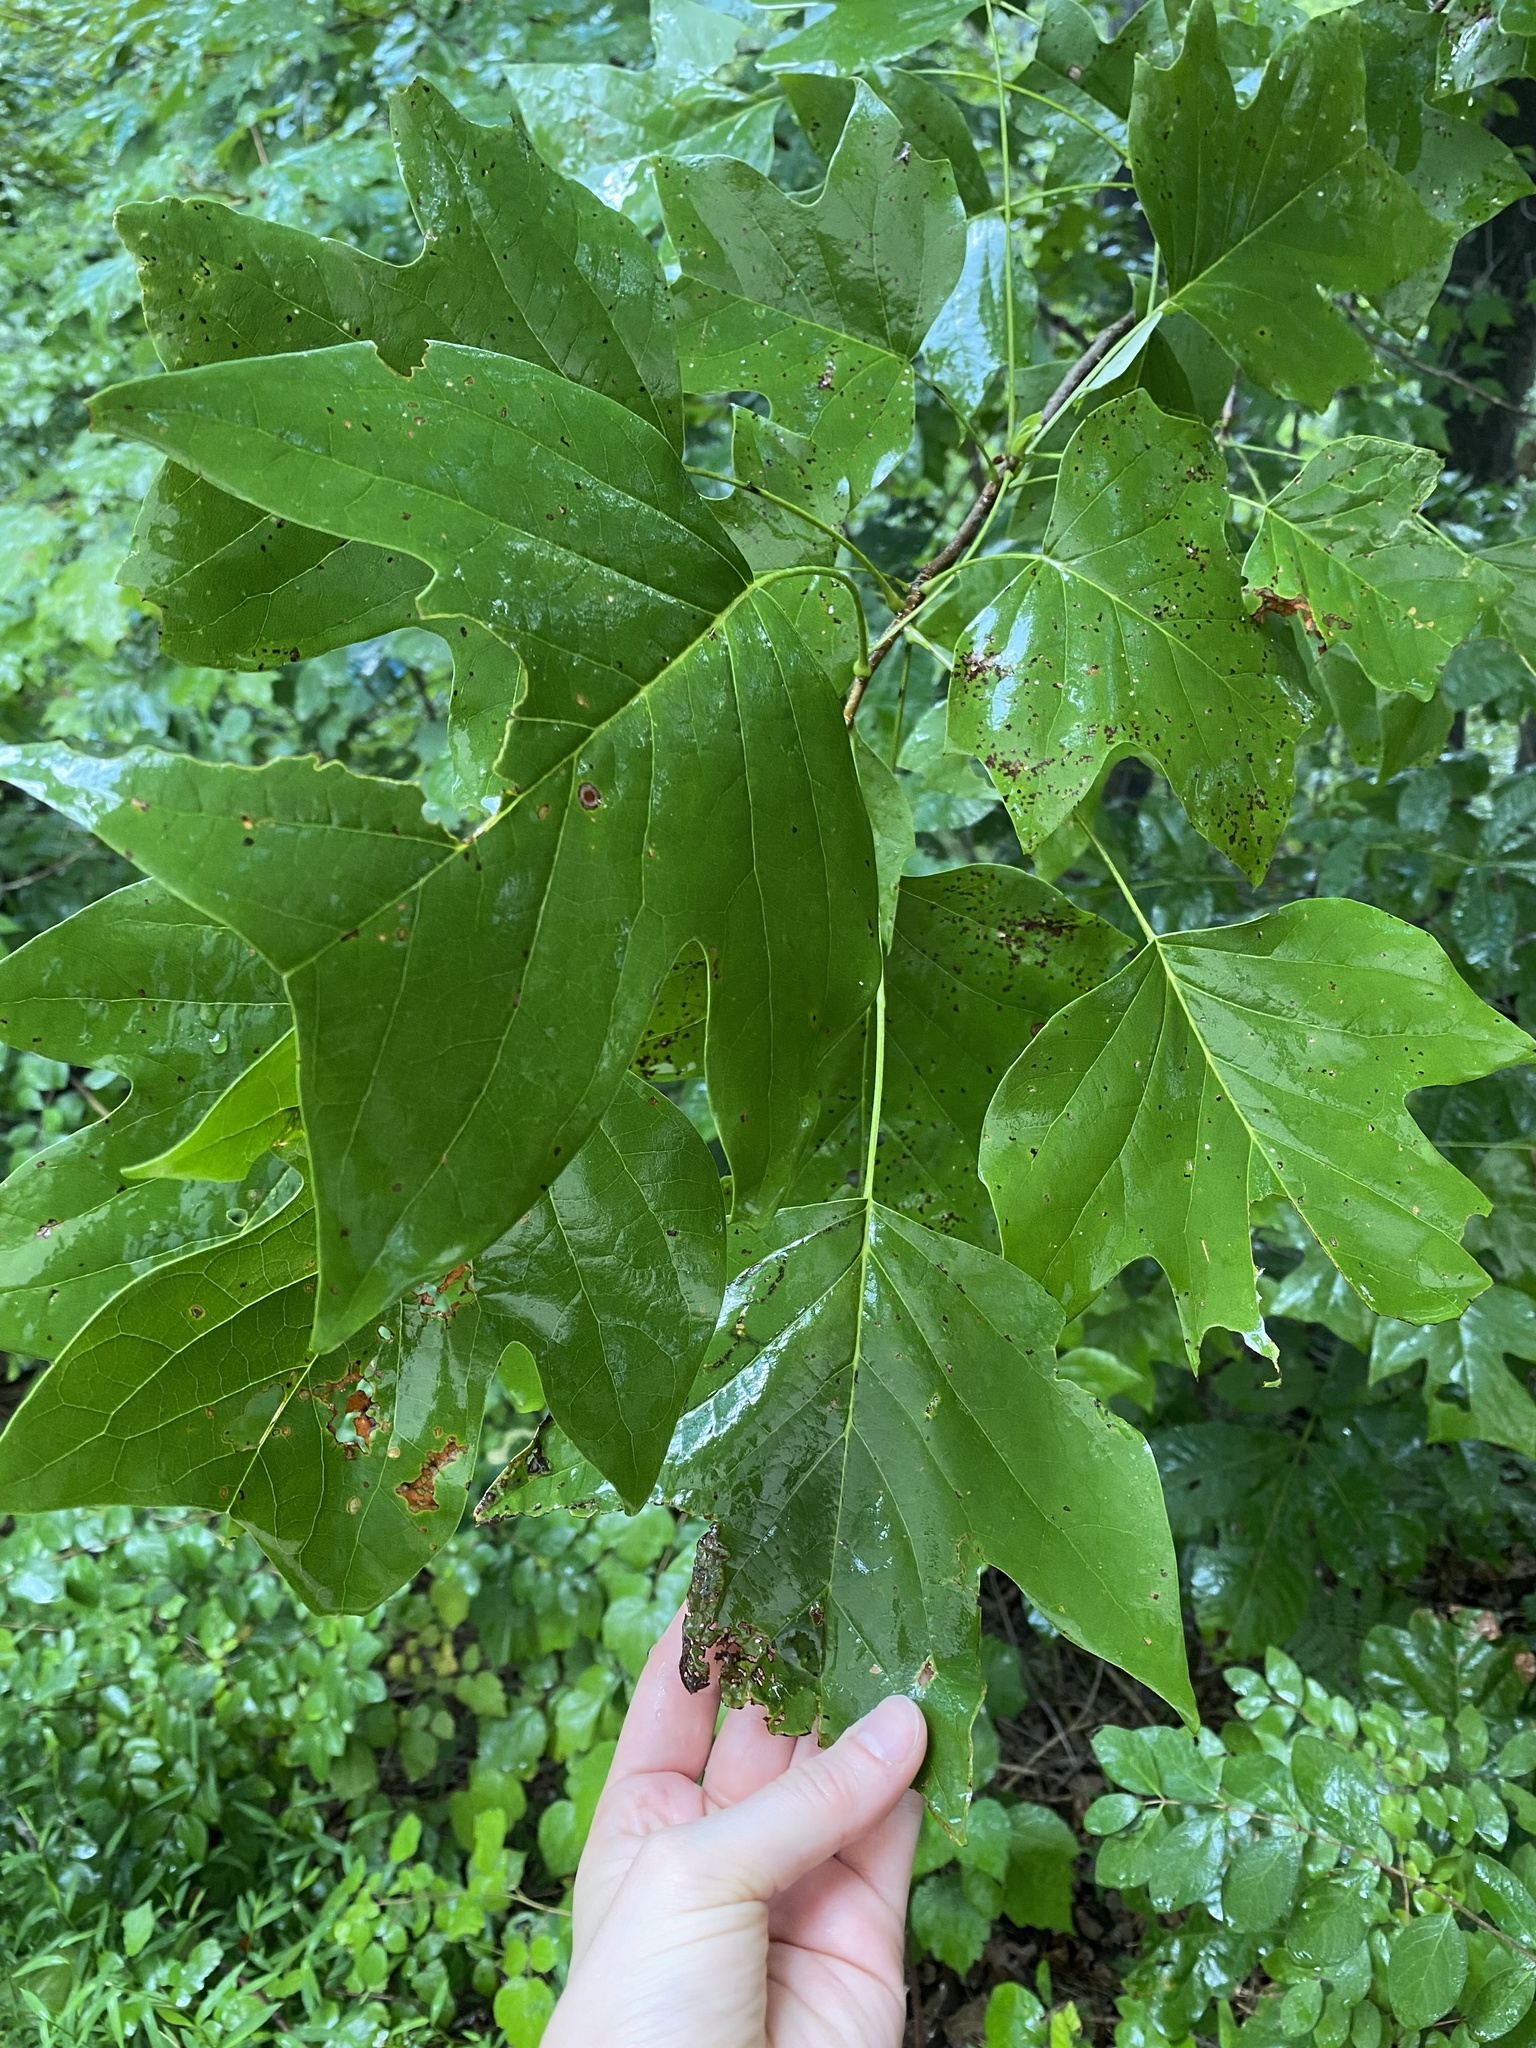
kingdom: Plantae
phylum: Tracheophyta
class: Magnoliopsida
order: Magnoliales
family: Magnoliaceae
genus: Liriodendron
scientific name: Liriodendron tulipifera
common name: Tulip tree
